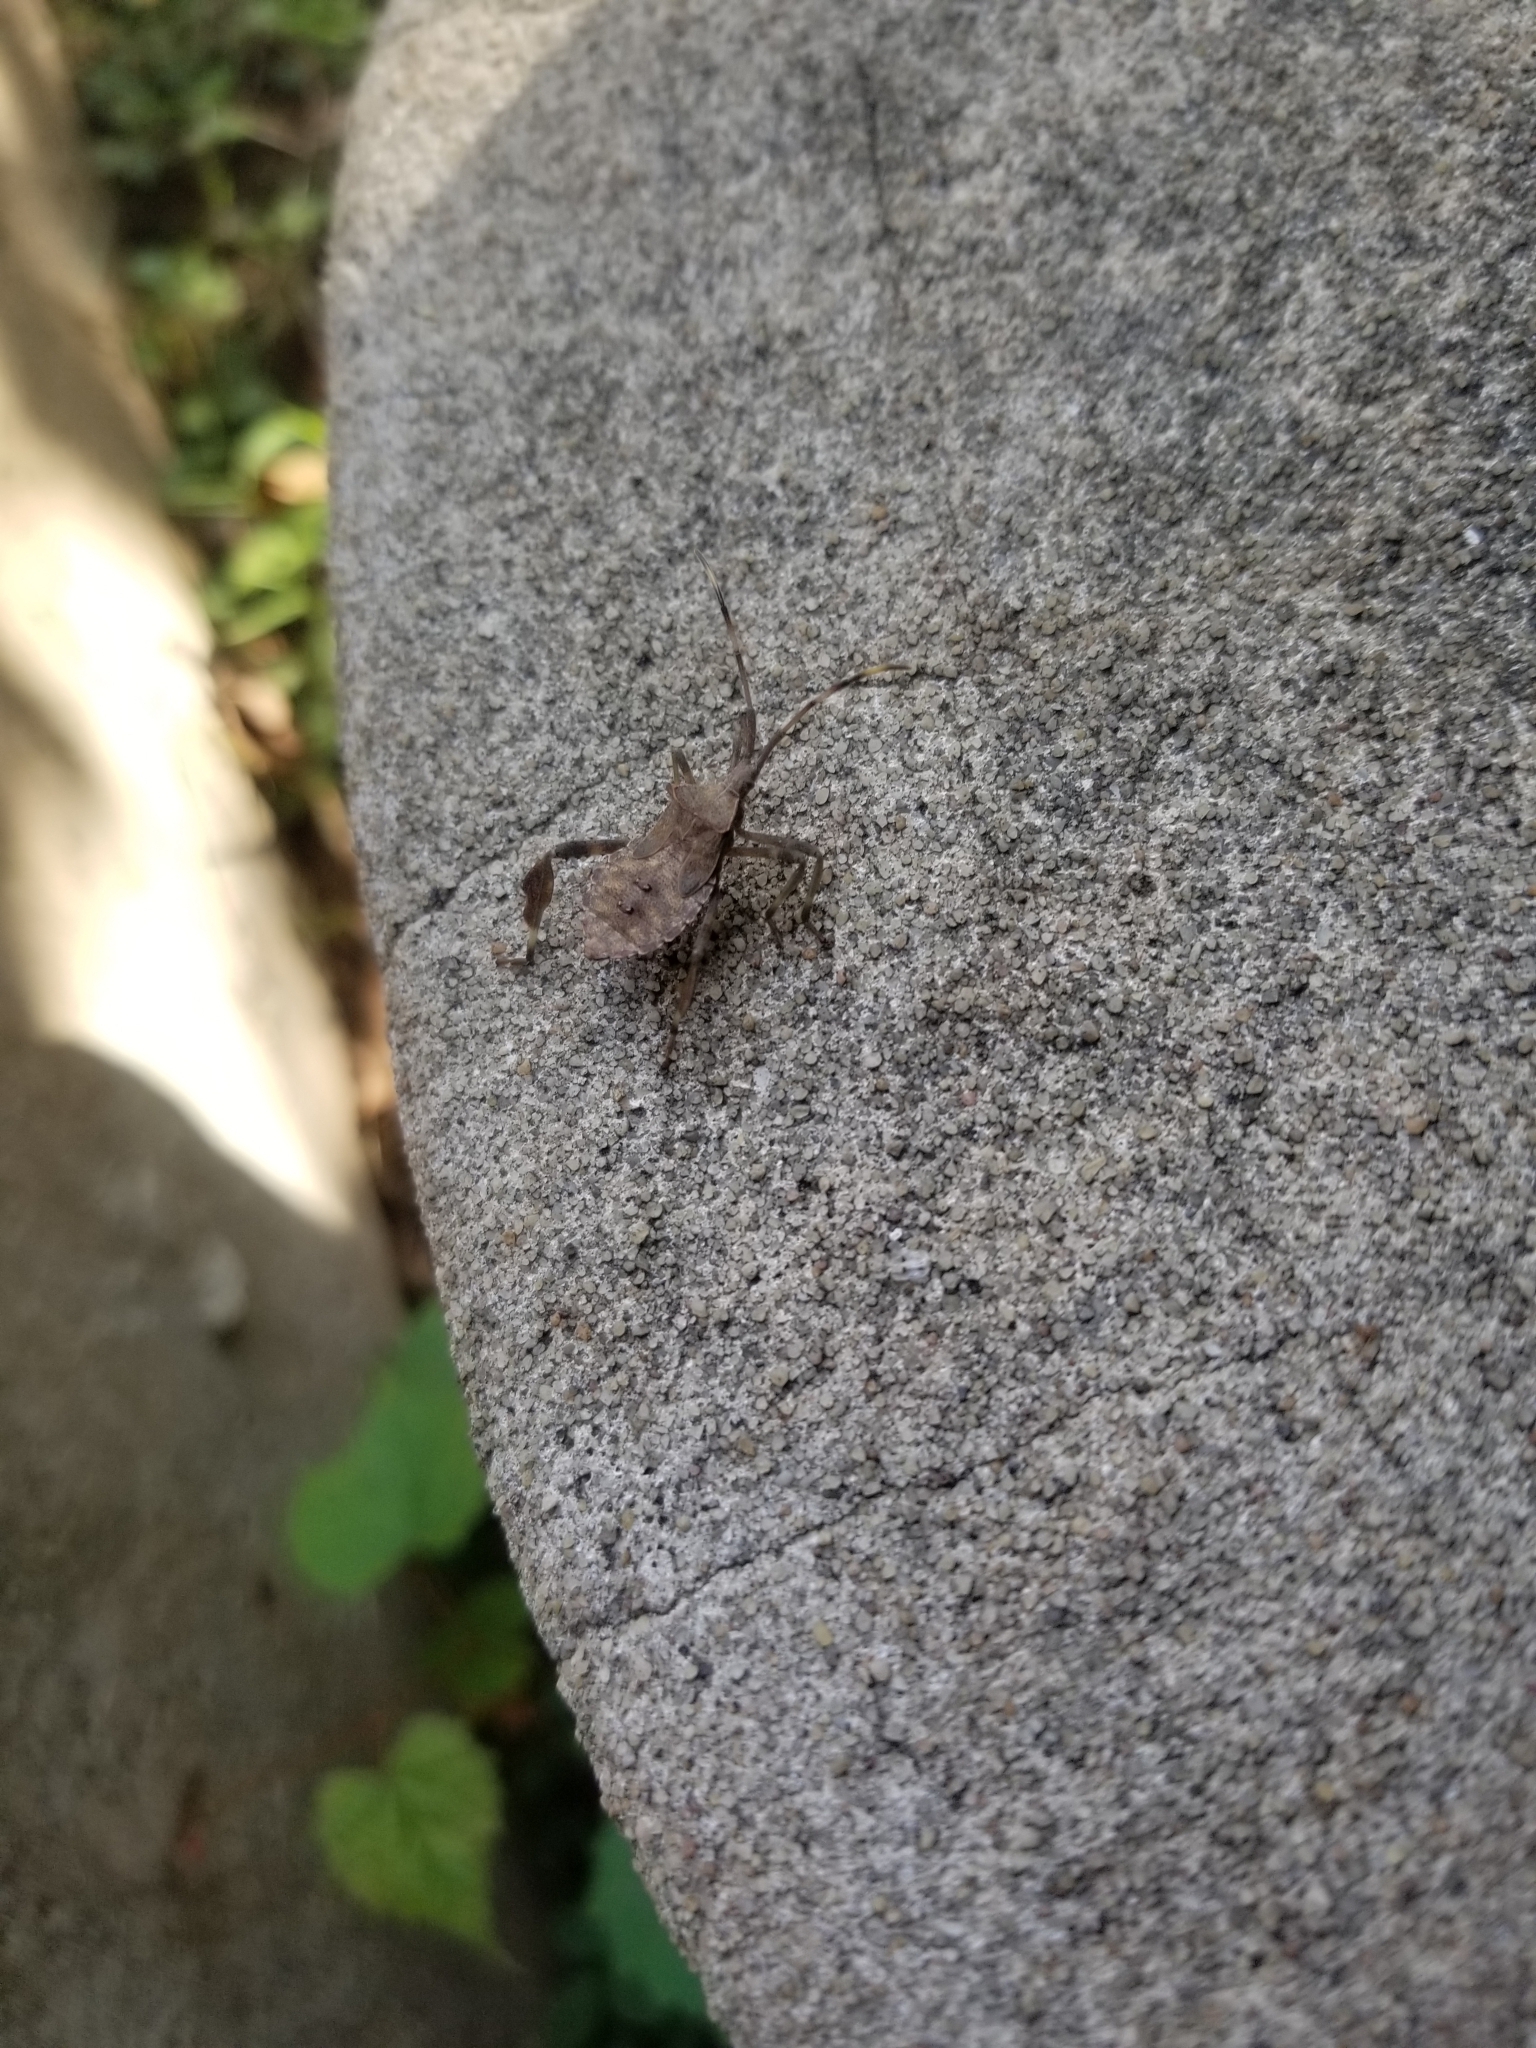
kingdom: Animalia
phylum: Arthropoda
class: Insecta
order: Hemiptera
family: Coreidae
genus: Acanthocephala
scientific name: Acanthocephala terminalis
